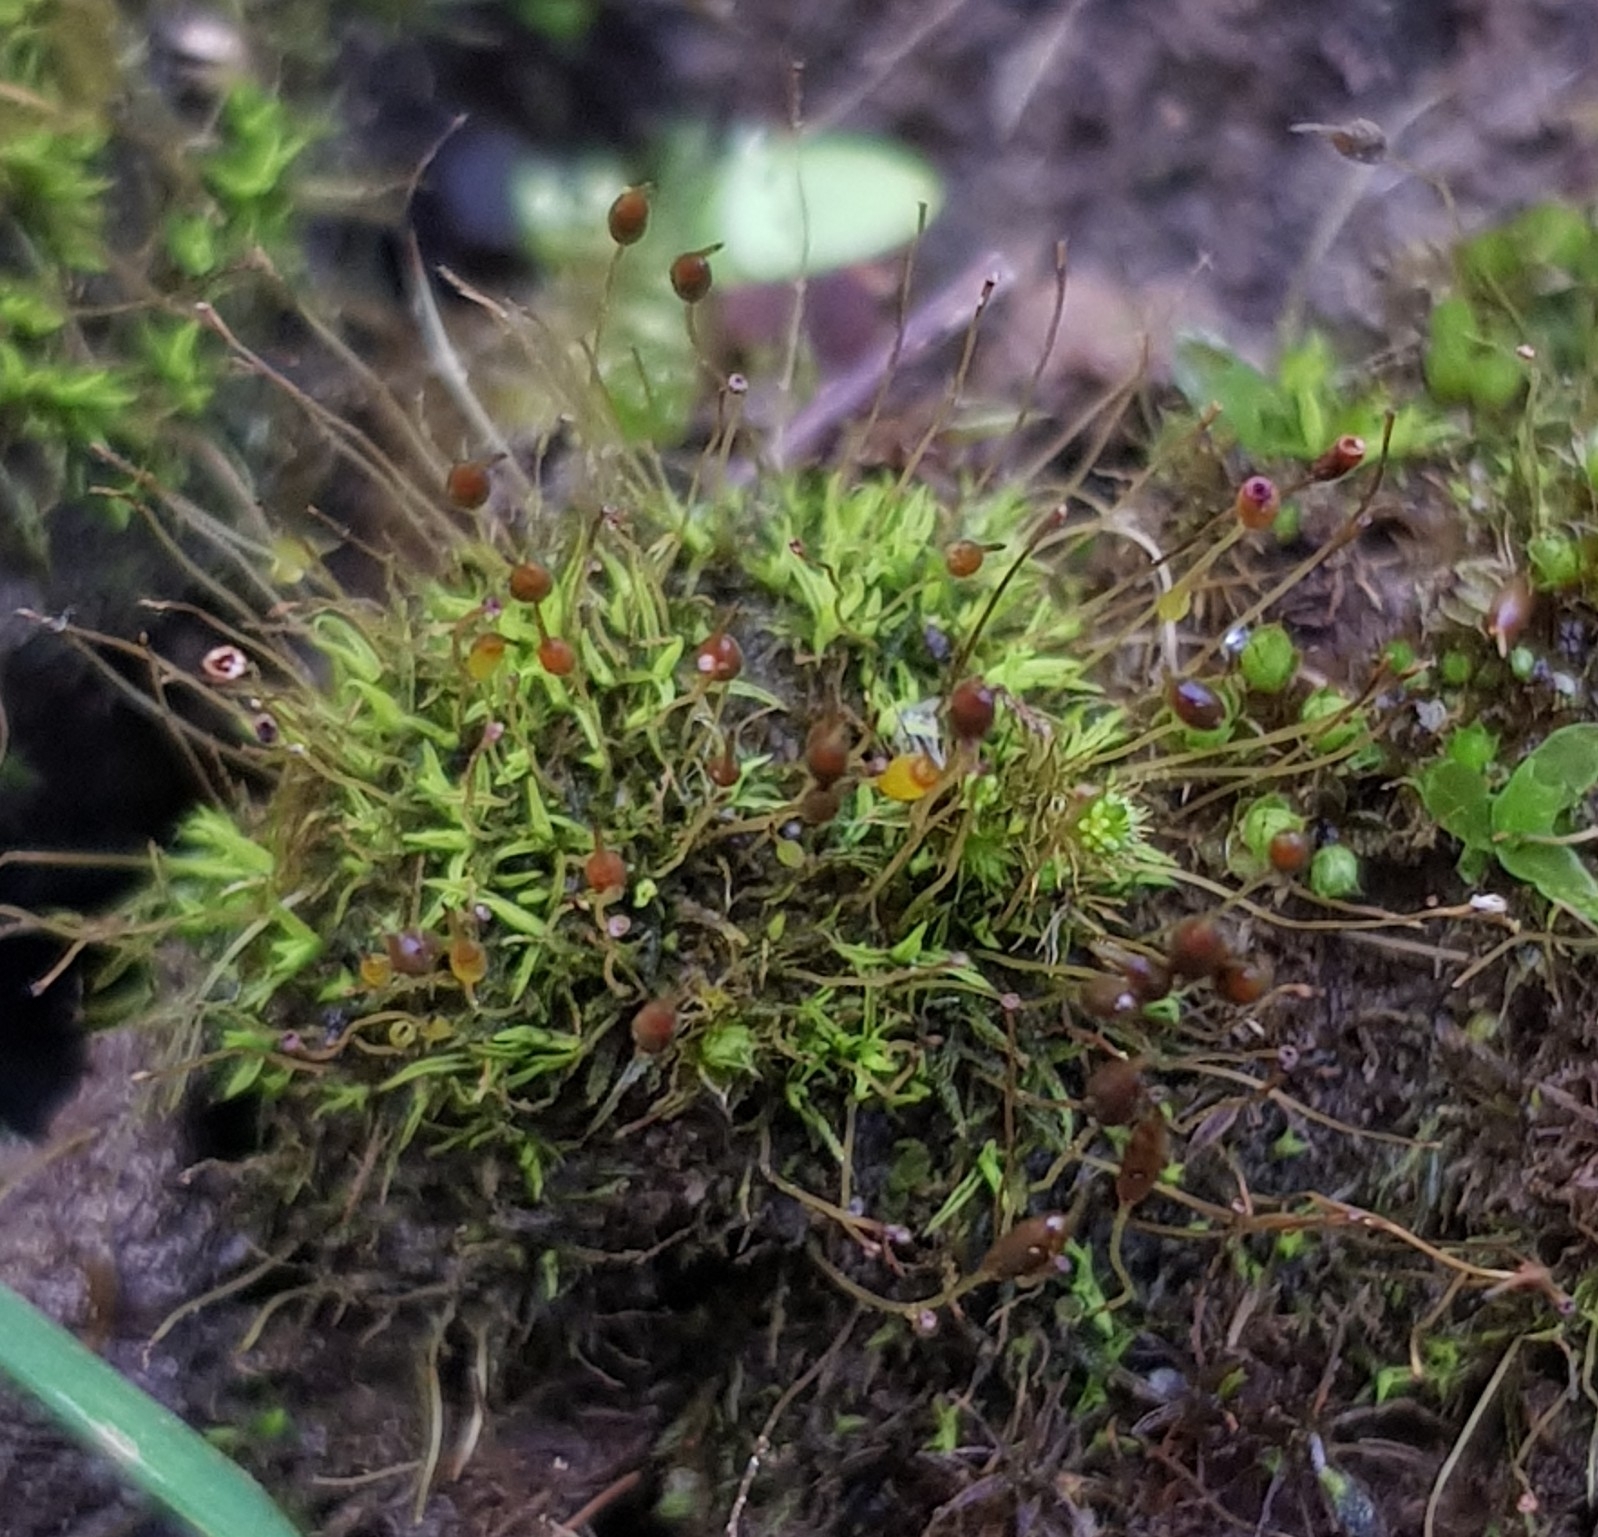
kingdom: Plantae
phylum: Bryophyta
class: Bryopsida
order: Pottiales
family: Pottiaceae
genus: Weissia
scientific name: Weissia brachycarpa
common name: Small-mouthed beardless-moss
